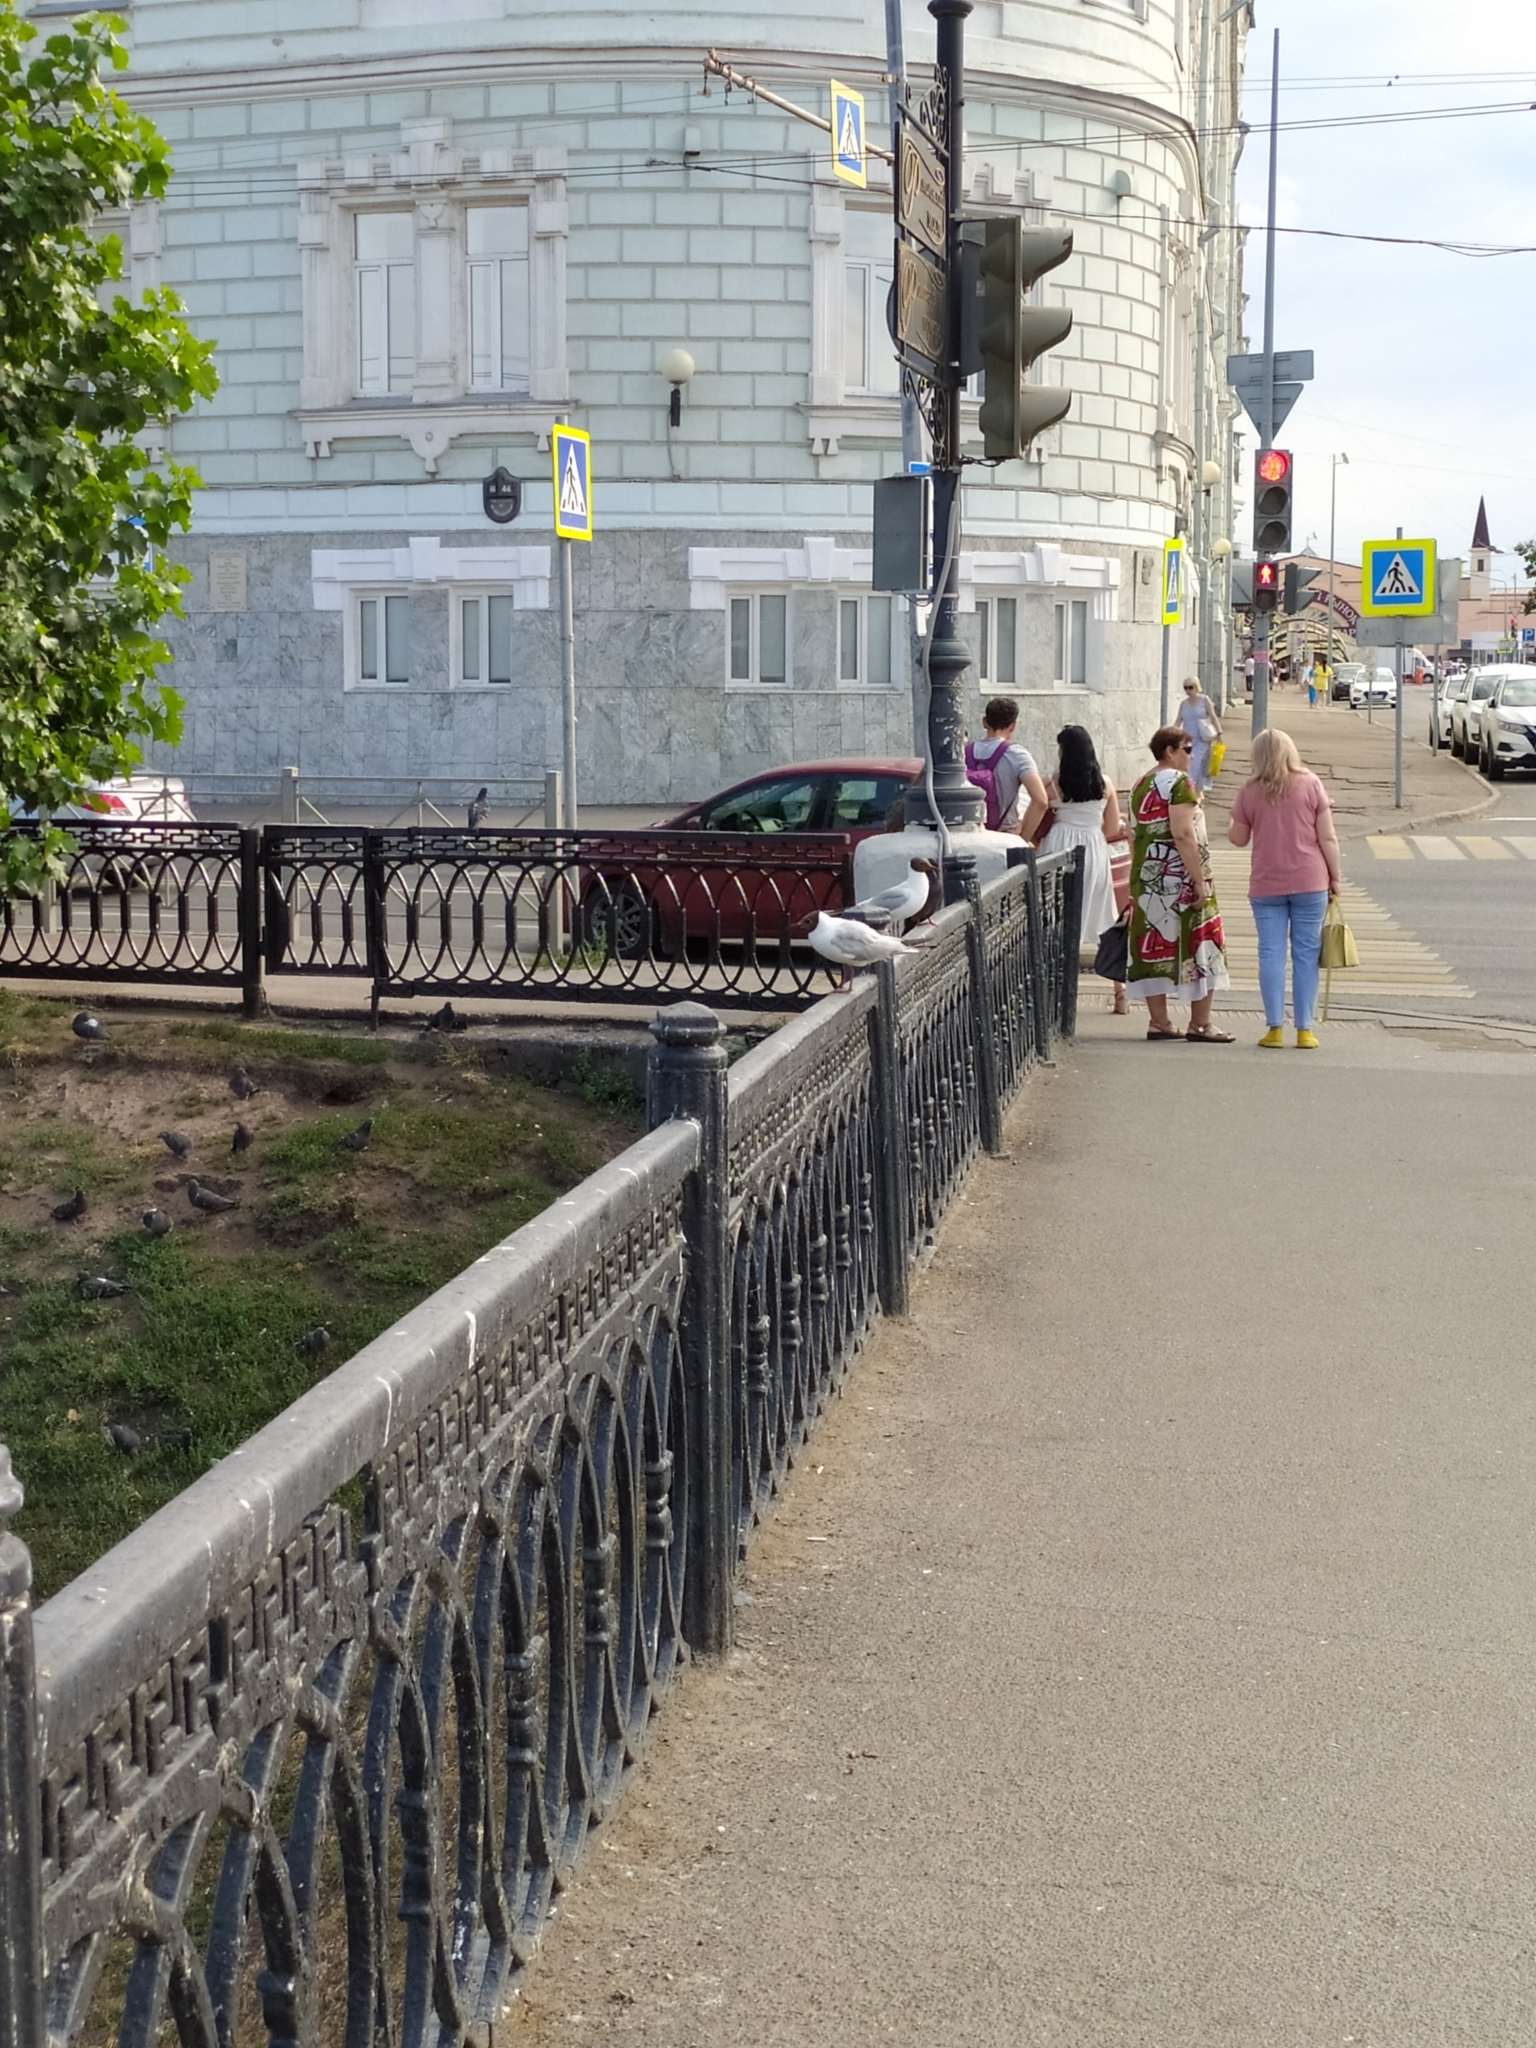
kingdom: Animalia
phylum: Chordata
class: Aves
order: Charadriiformes
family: Laridae
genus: Chroicocephalus
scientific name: Chroicocephalus ridibundus
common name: Black-headed gull
